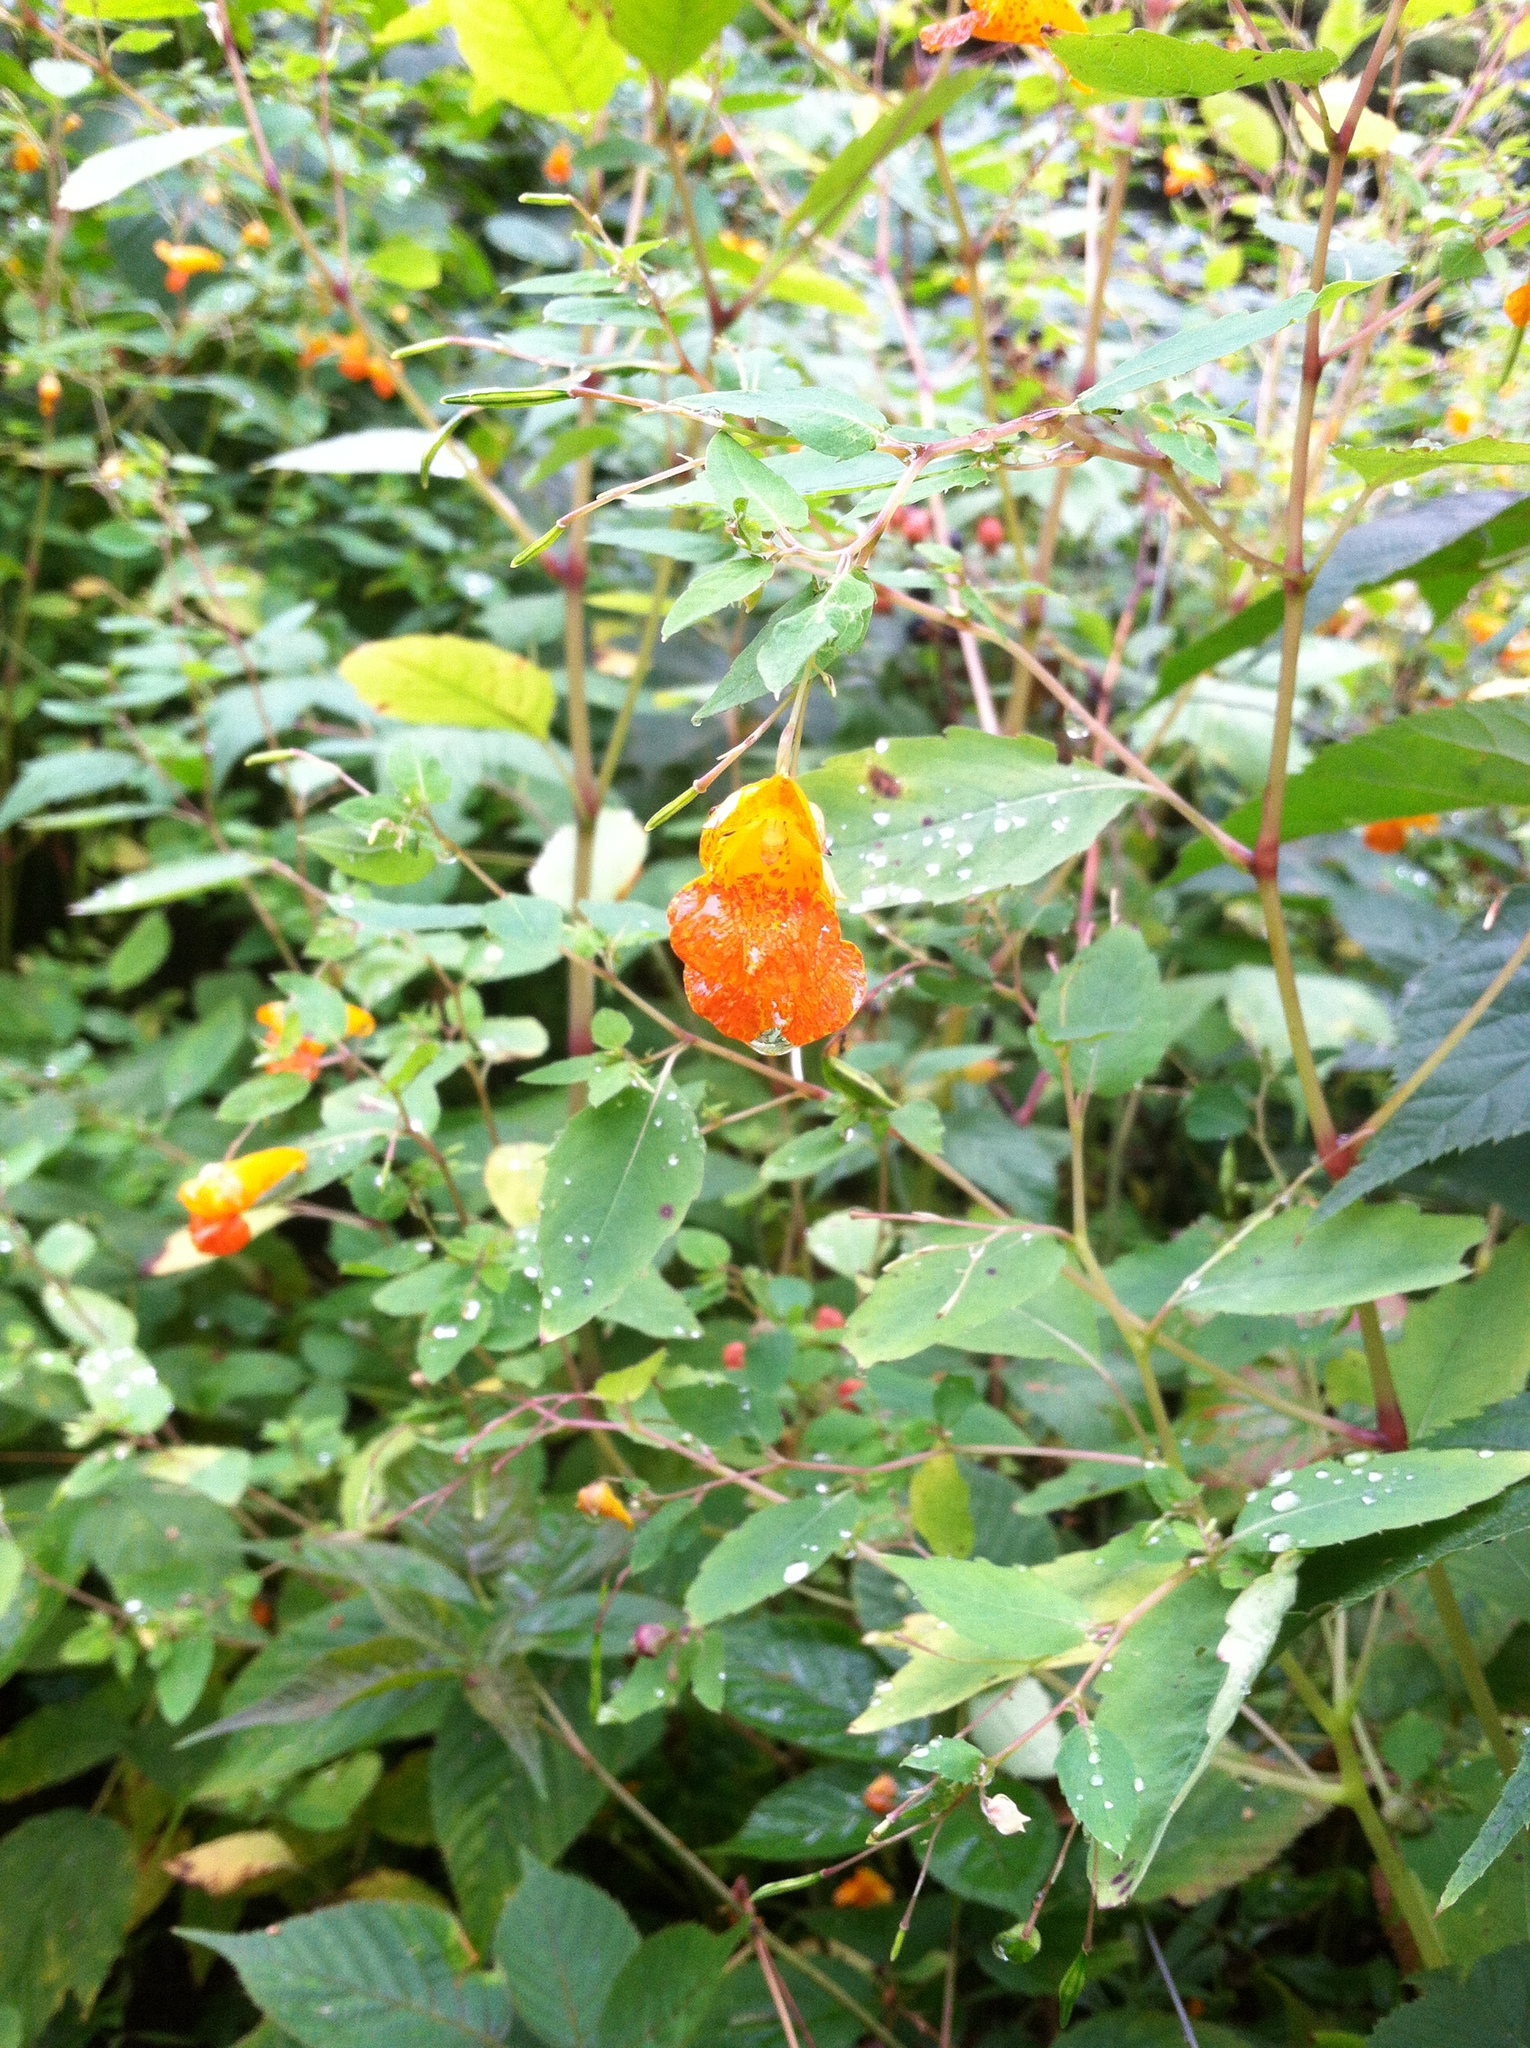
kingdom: Plantae
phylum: Tracheophyta
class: Magnoliopsida
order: Ericales
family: Balsaminaceae
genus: Impatiens
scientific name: Impatiens capensis
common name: Orange balsam
